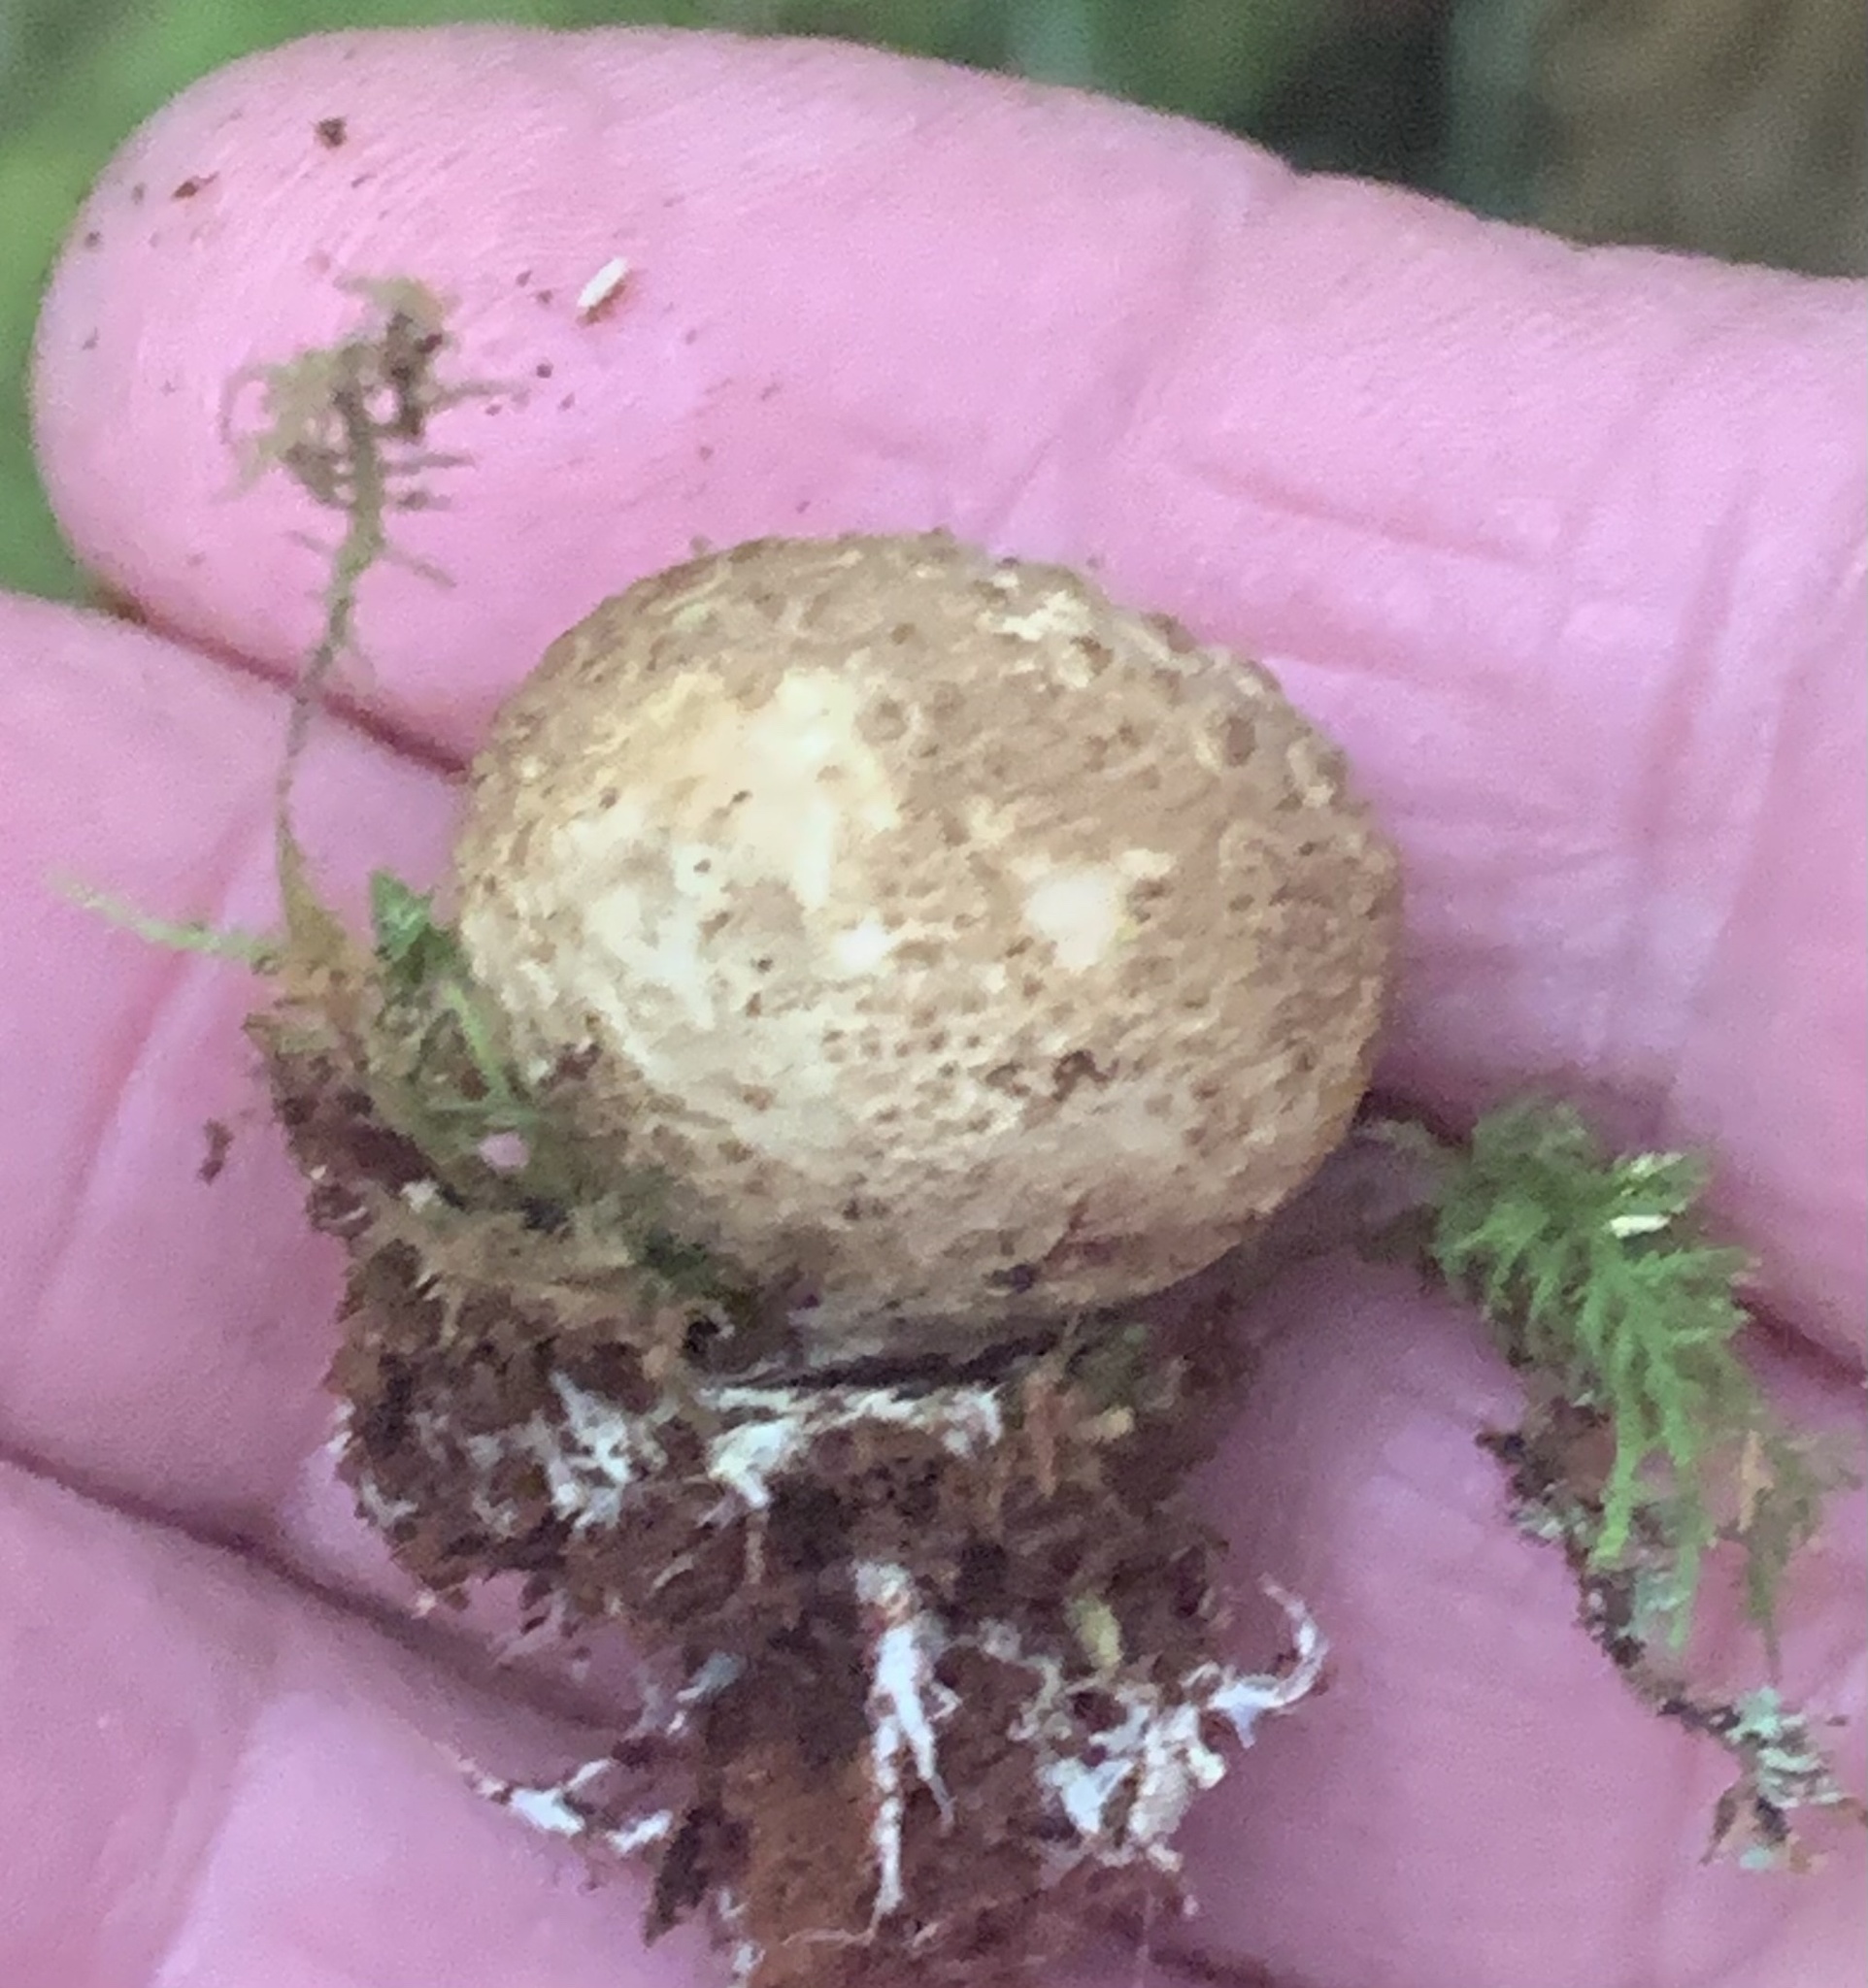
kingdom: Fungi
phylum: Basidiomycota
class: Agaricomycetes
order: Boletales
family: Sclerodermataceae
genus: Scleroderma
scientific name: Scleroderma citrinum
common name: Common earthball
